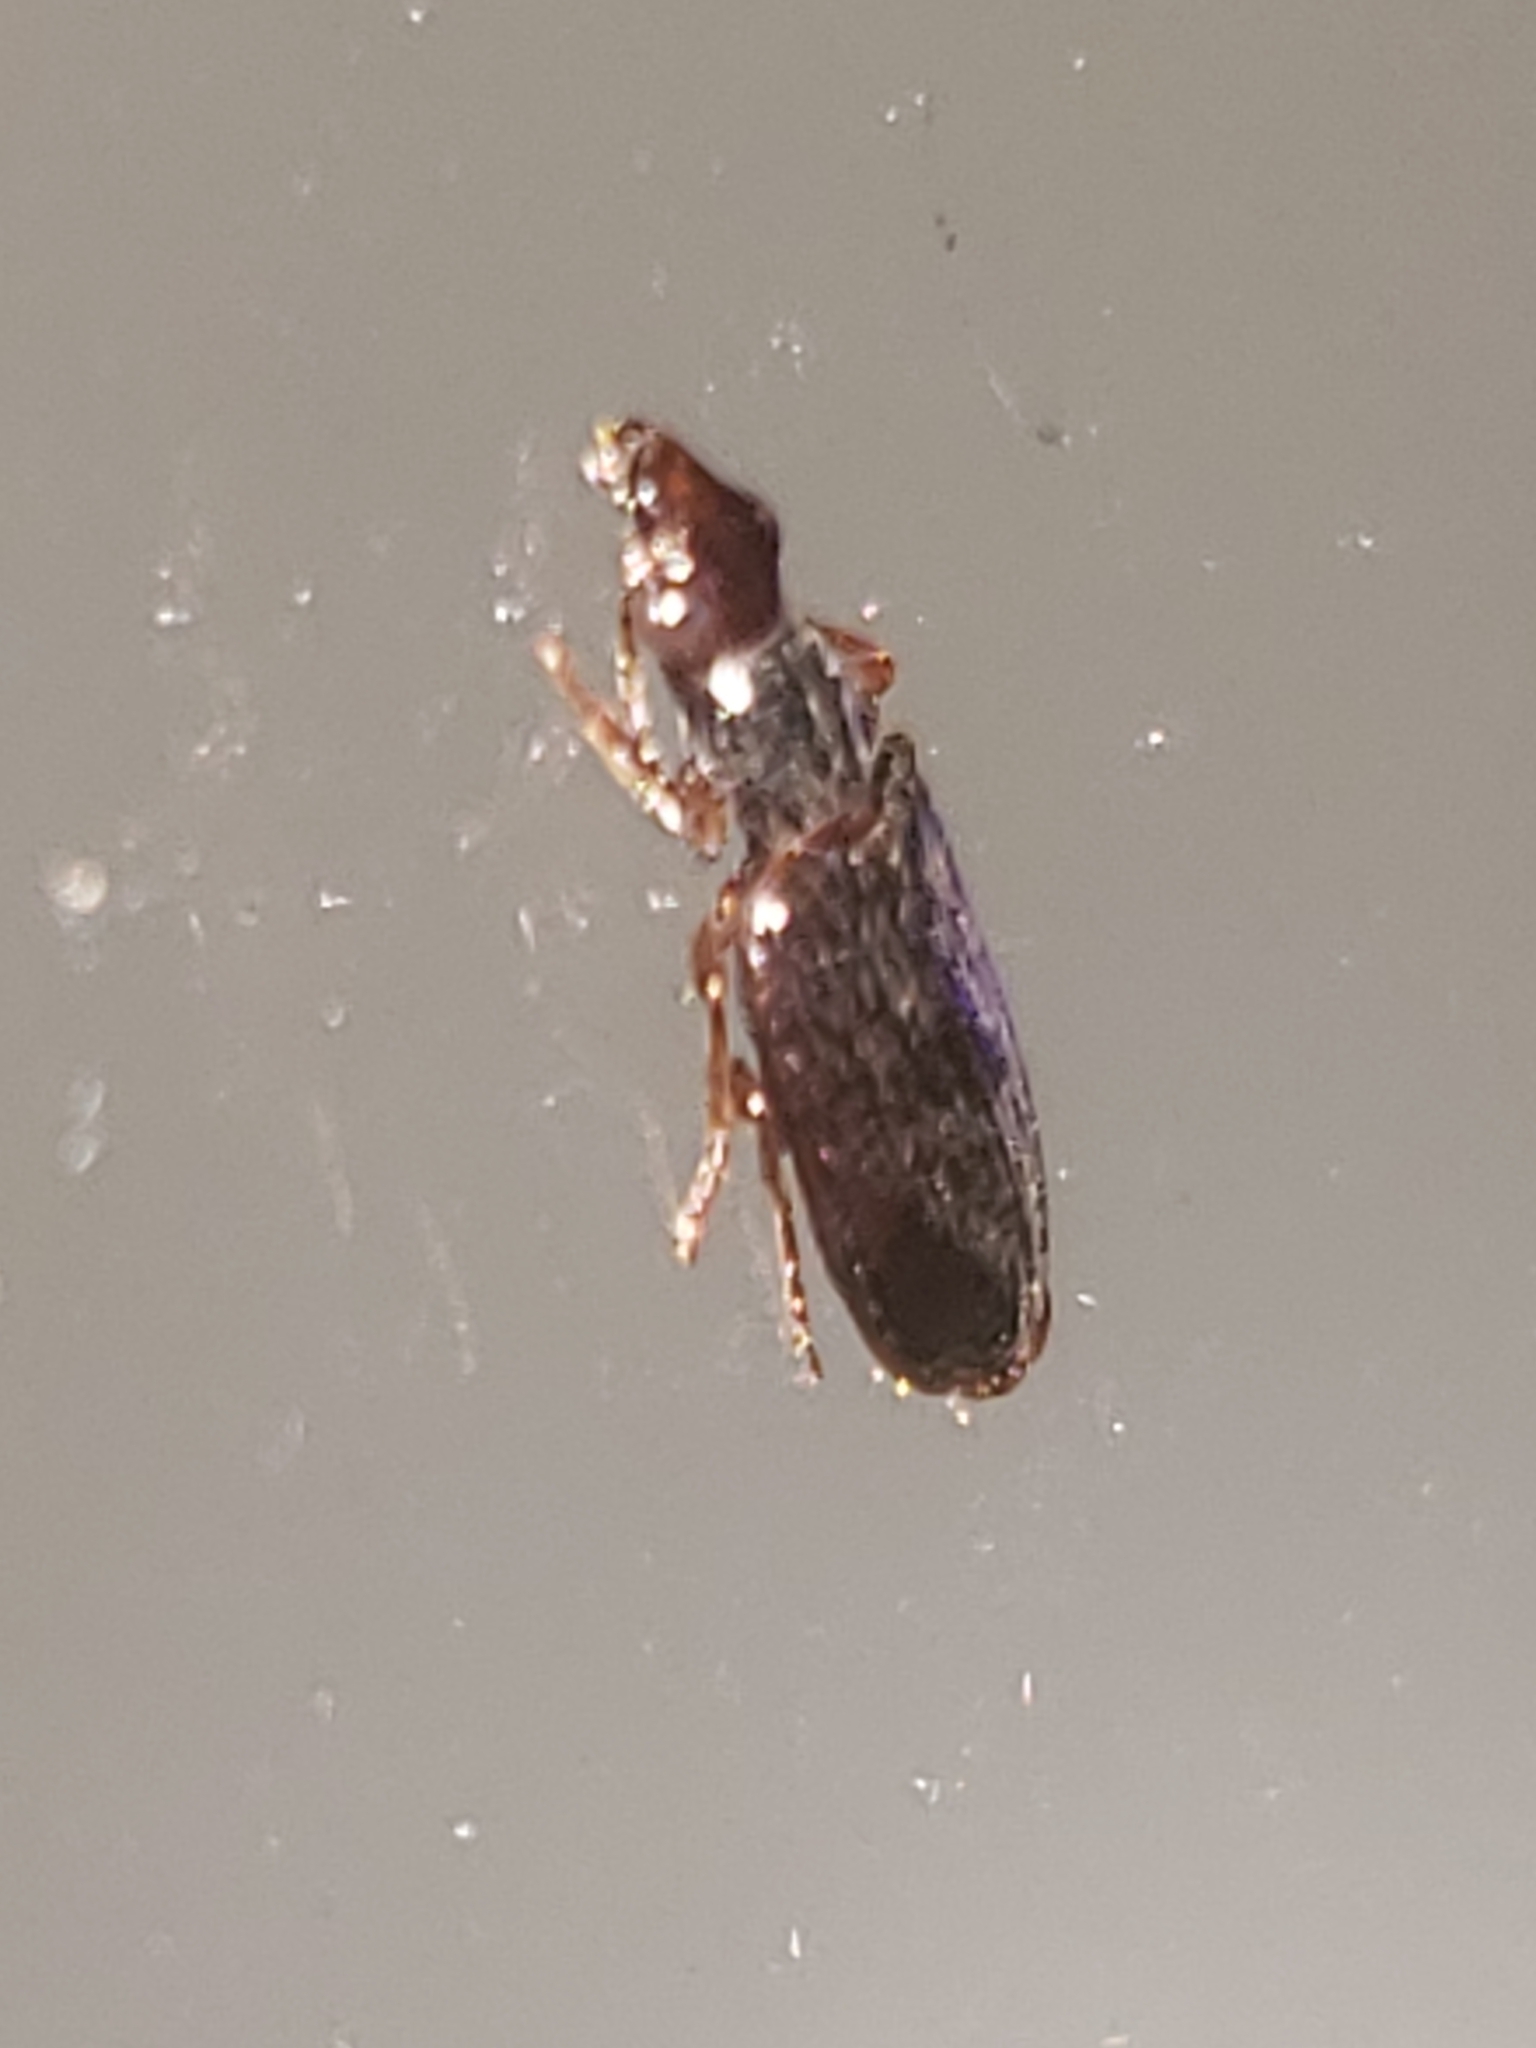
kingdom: Animalia
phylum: Arthropoda
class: Insecta
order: Coleoptera
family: Carabidae
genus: Plochionus
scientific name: Plochionus timidus
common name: Timid harp ground beetle
